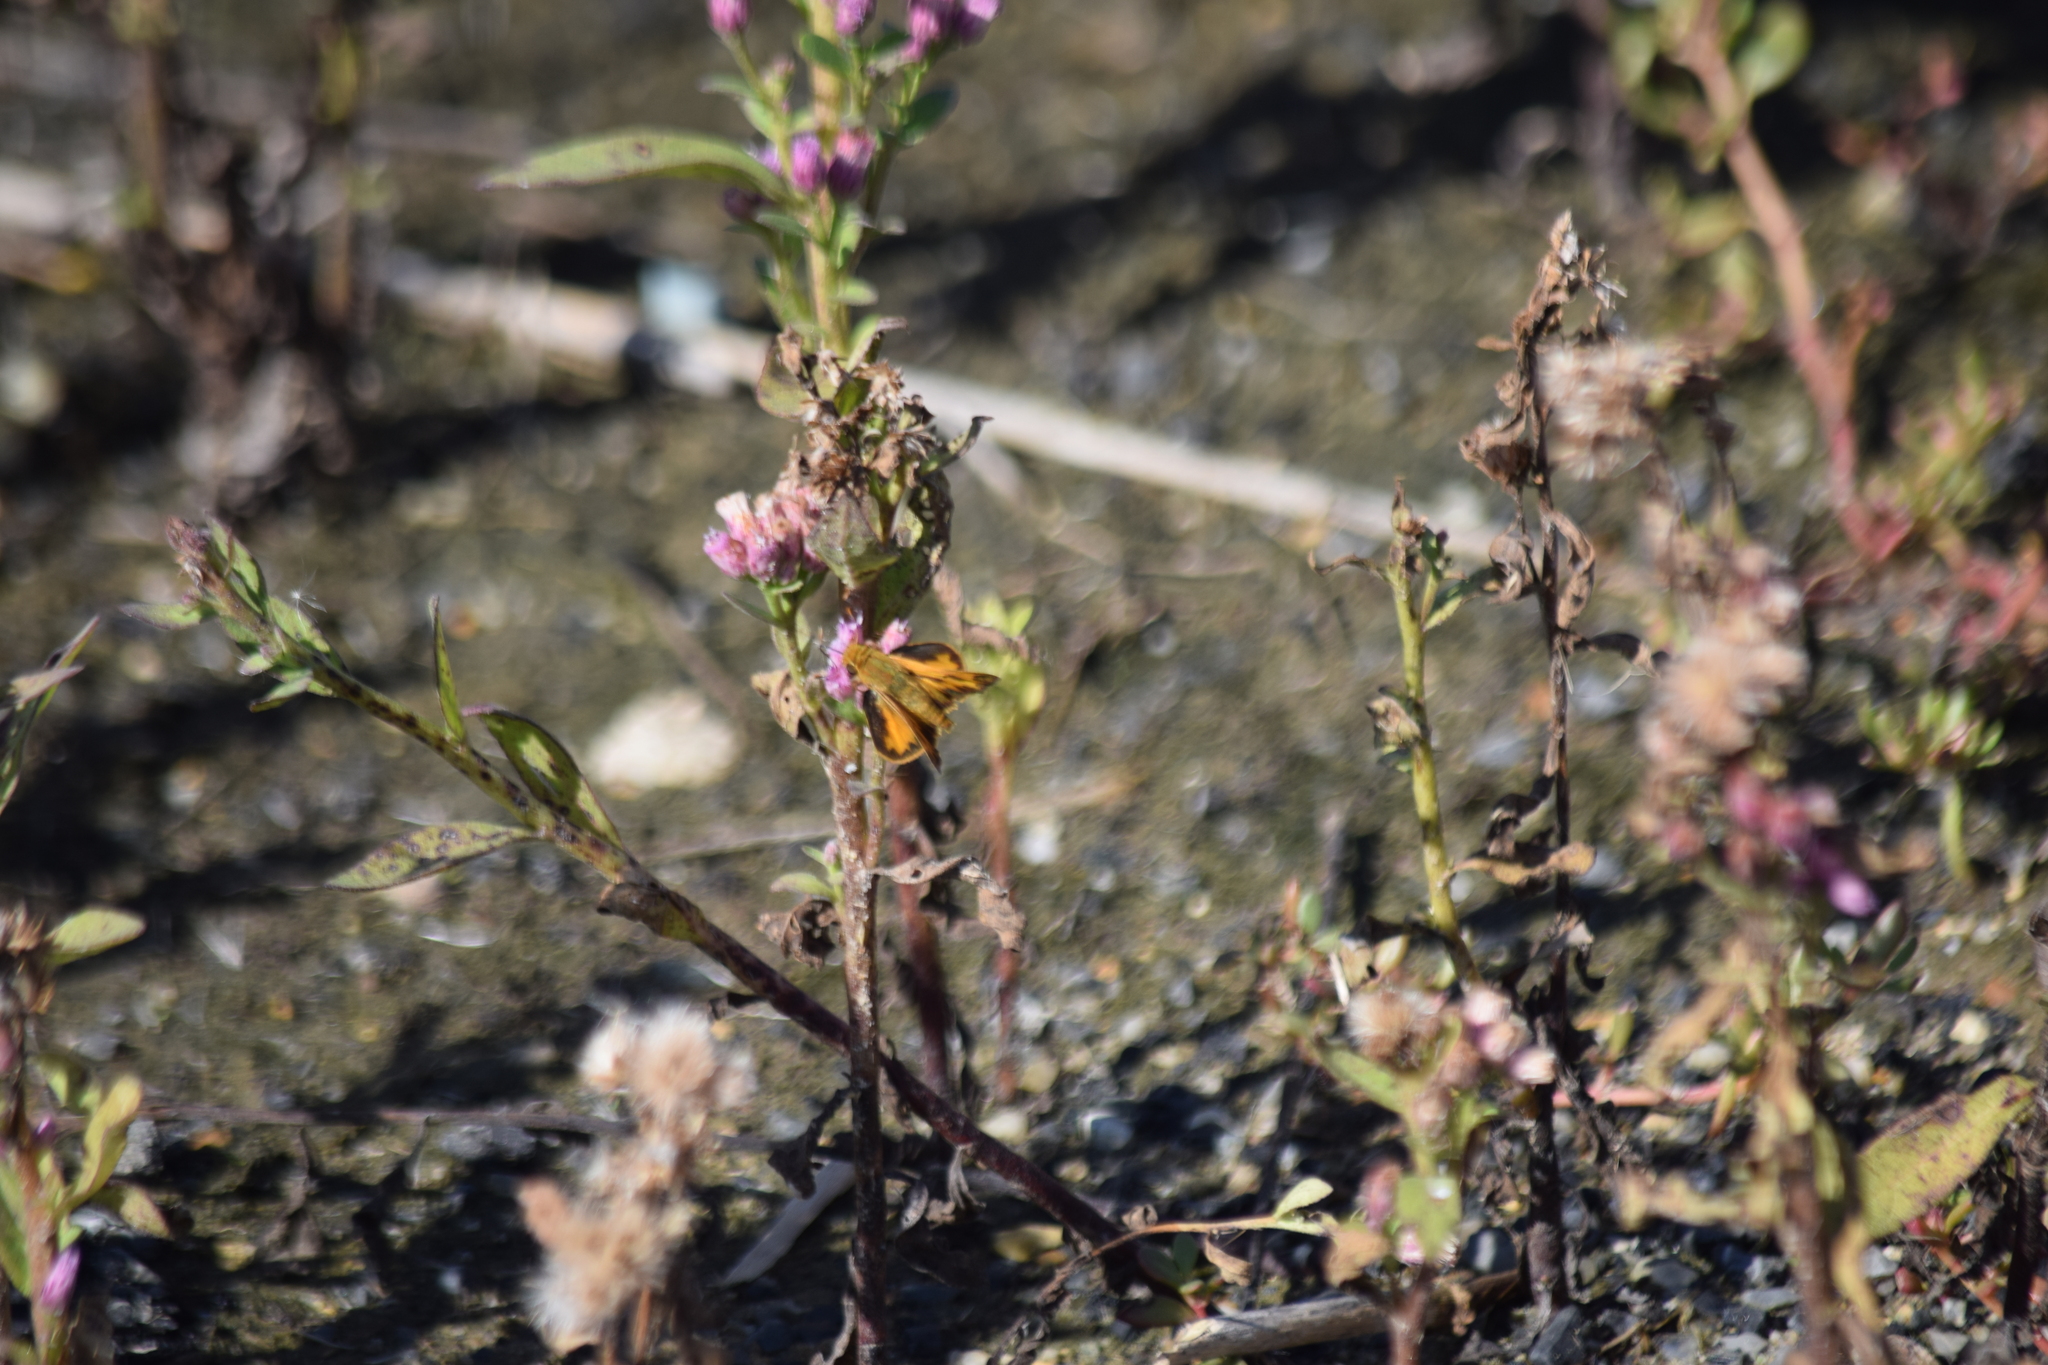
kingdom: Animalia
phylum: Arthropoda
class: Insecta
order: Lepidoptera
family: Hesperiidae
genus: Hylephila
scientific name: Hylephila phyleus
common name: Fiery skipper
